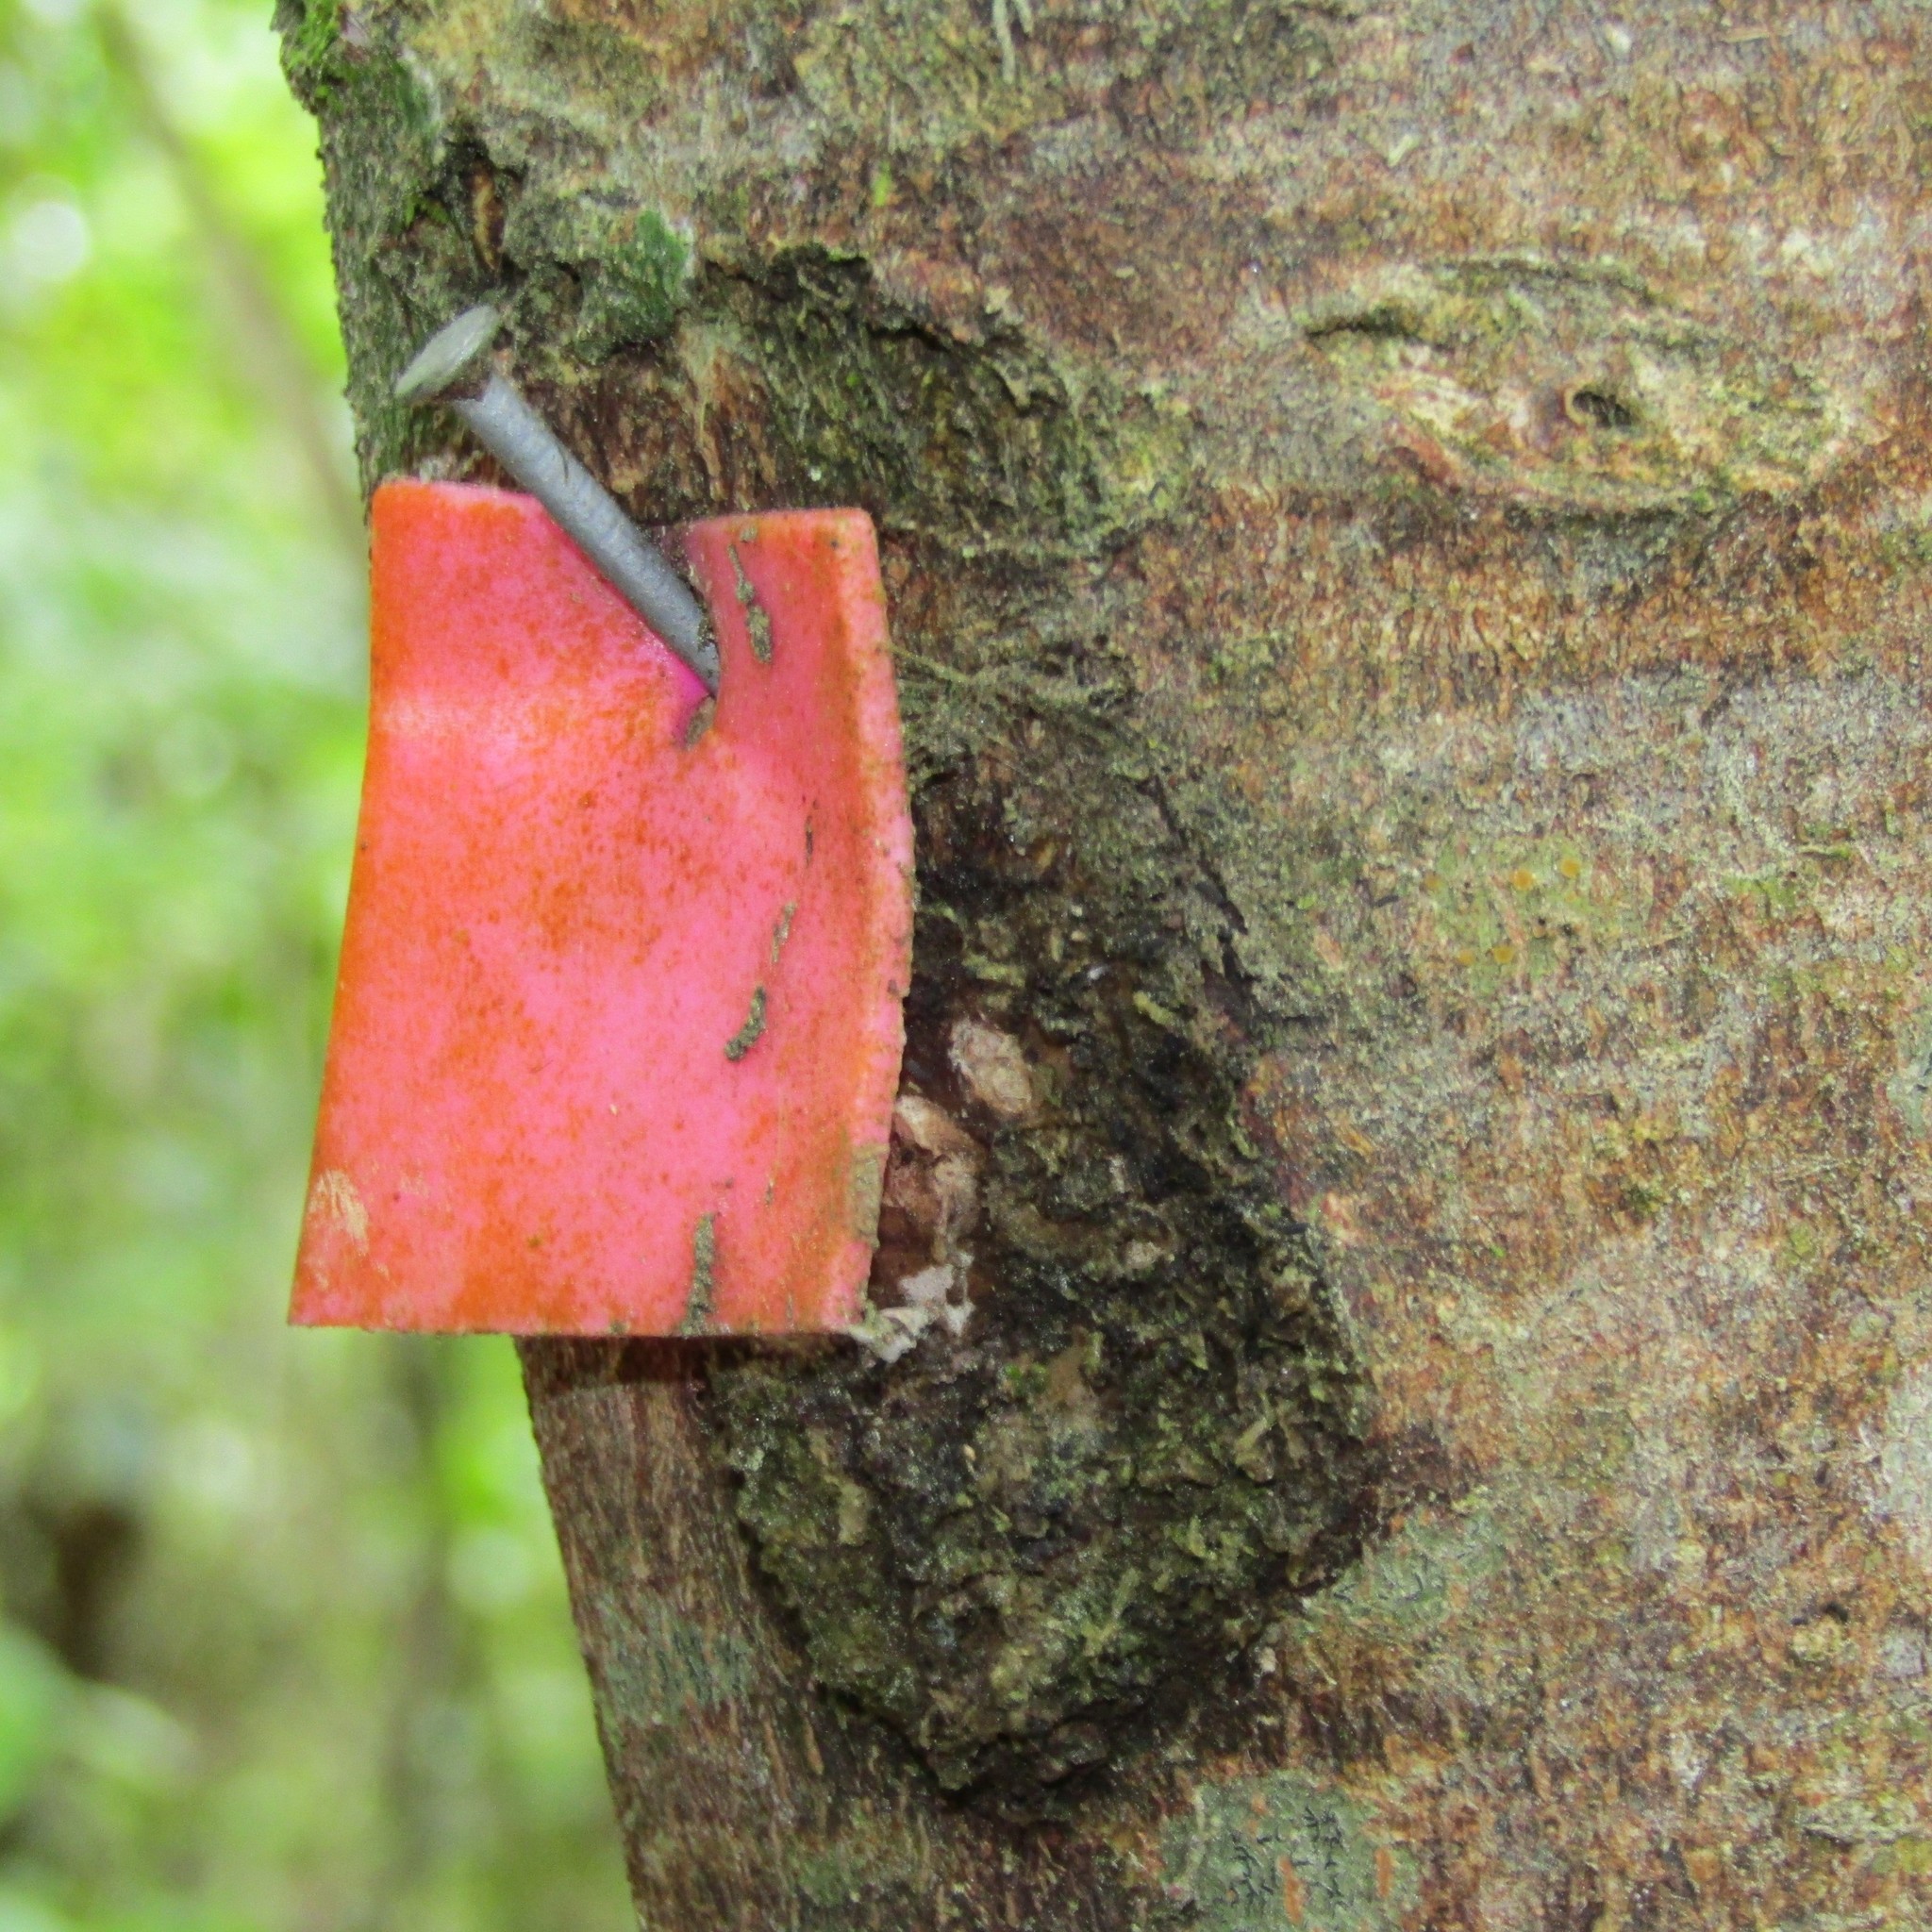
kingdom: Animalia
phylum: Arthropoda
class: Insecta
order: Lepidoptera
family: Hepialidae
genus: Aenetus
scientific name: Aenetus virescens
